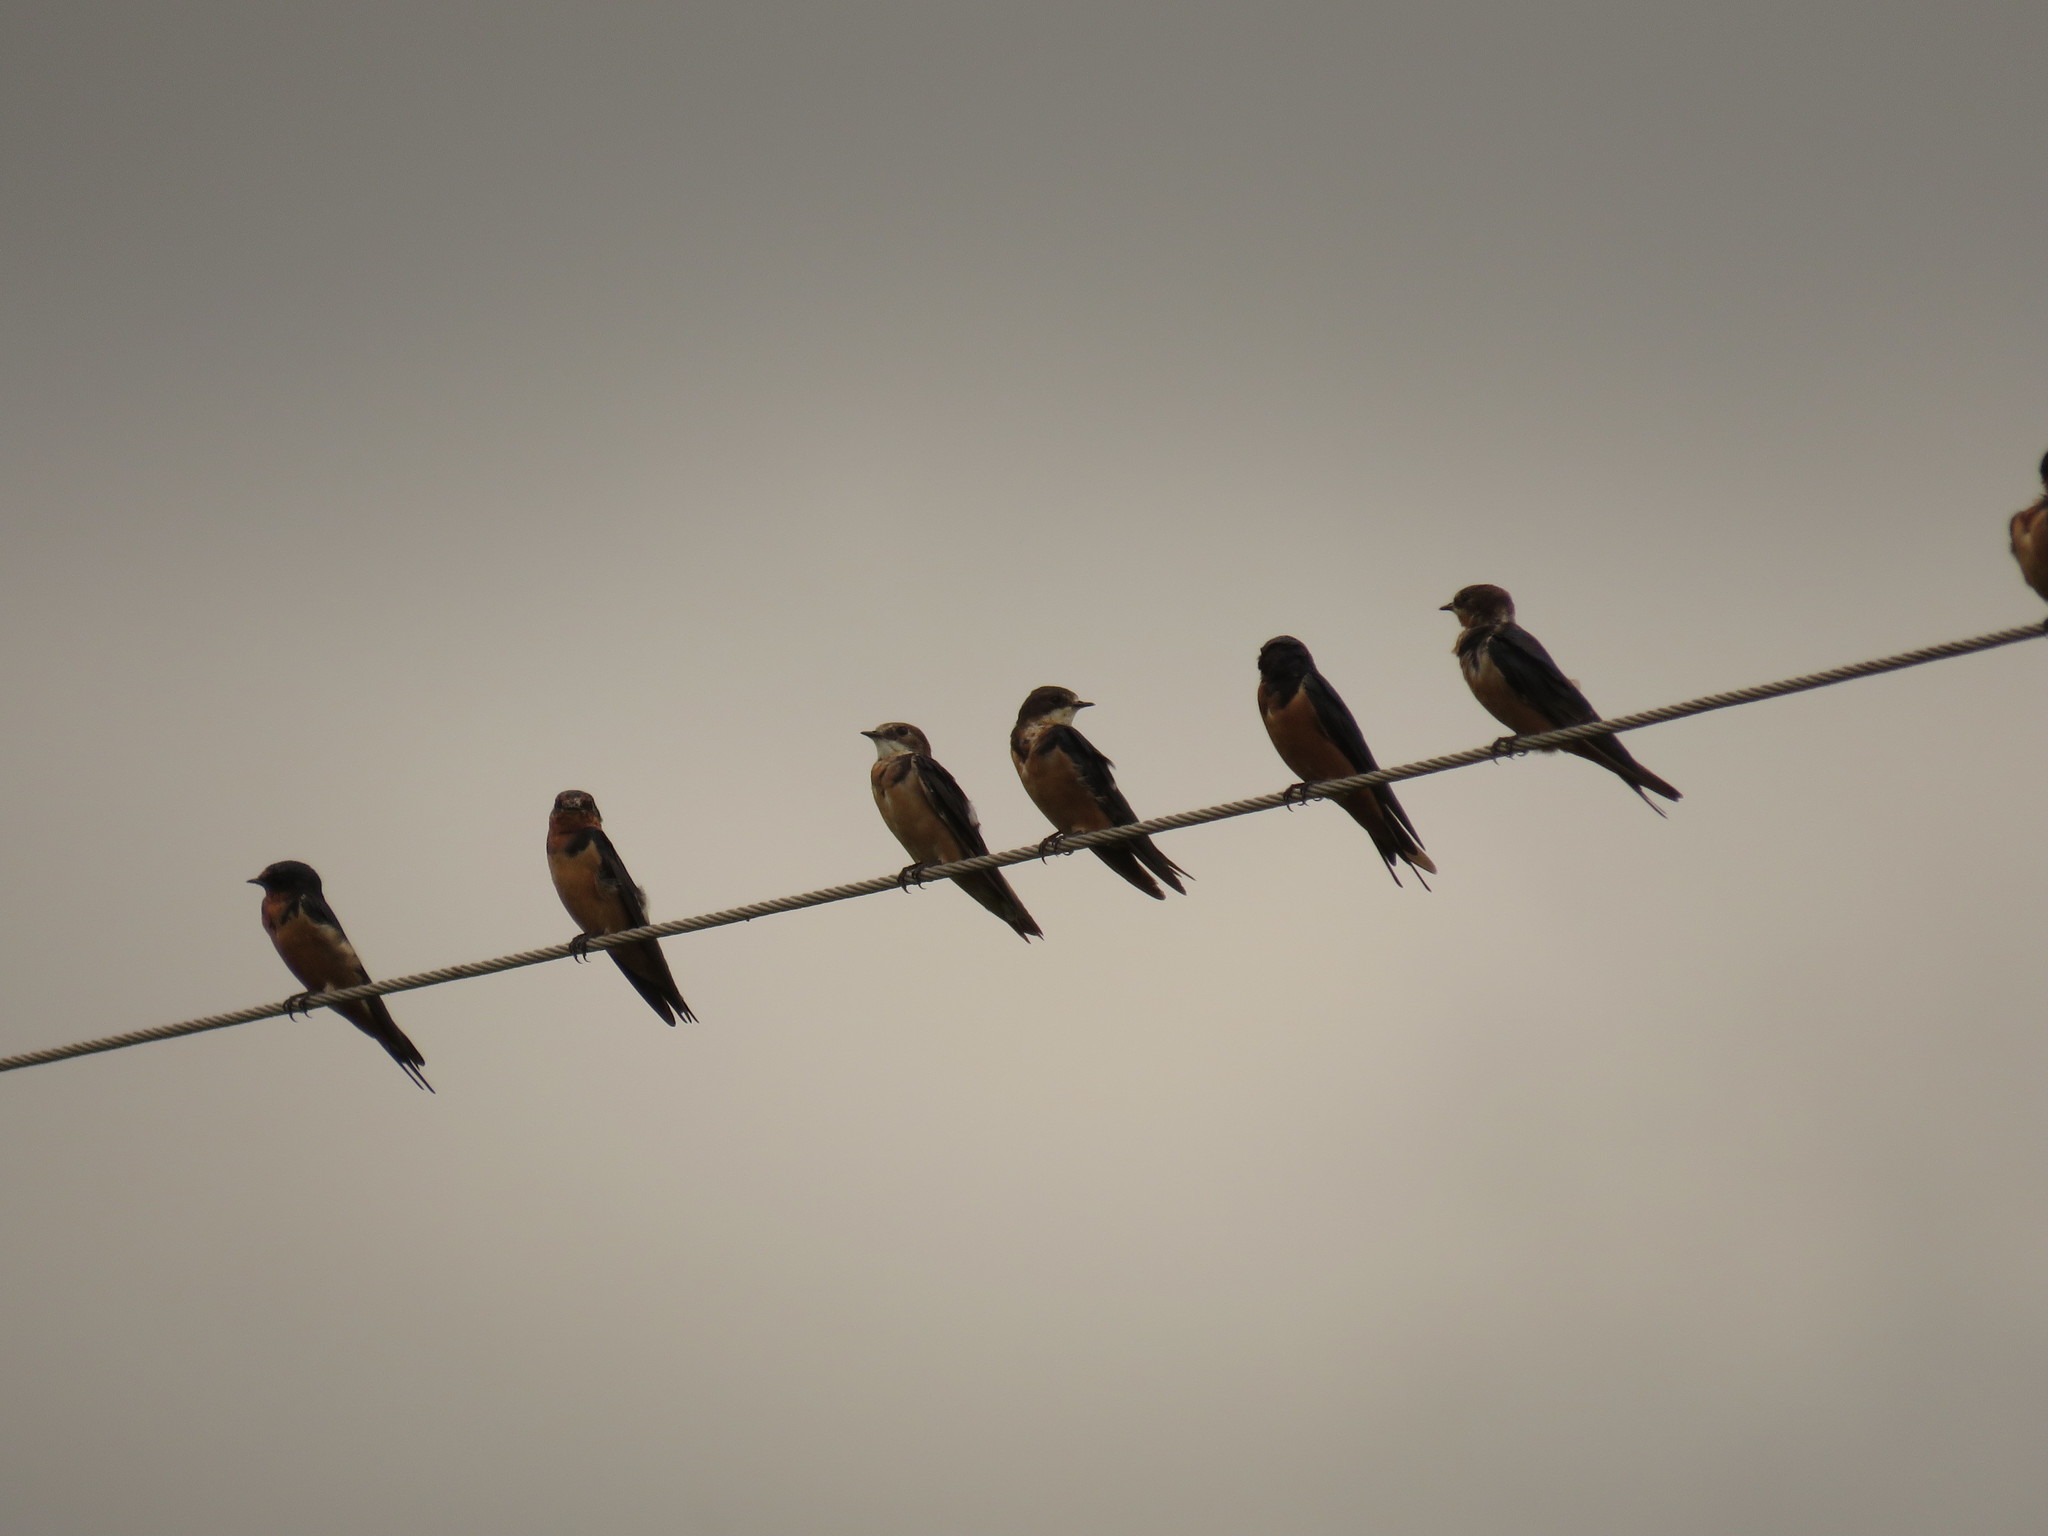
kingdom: Animalia
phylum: Chordata
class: Aves
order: Passeriformes
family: Hirundinidae
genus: Hirundo
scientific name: Hirundo rustica
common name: Barn swallow
